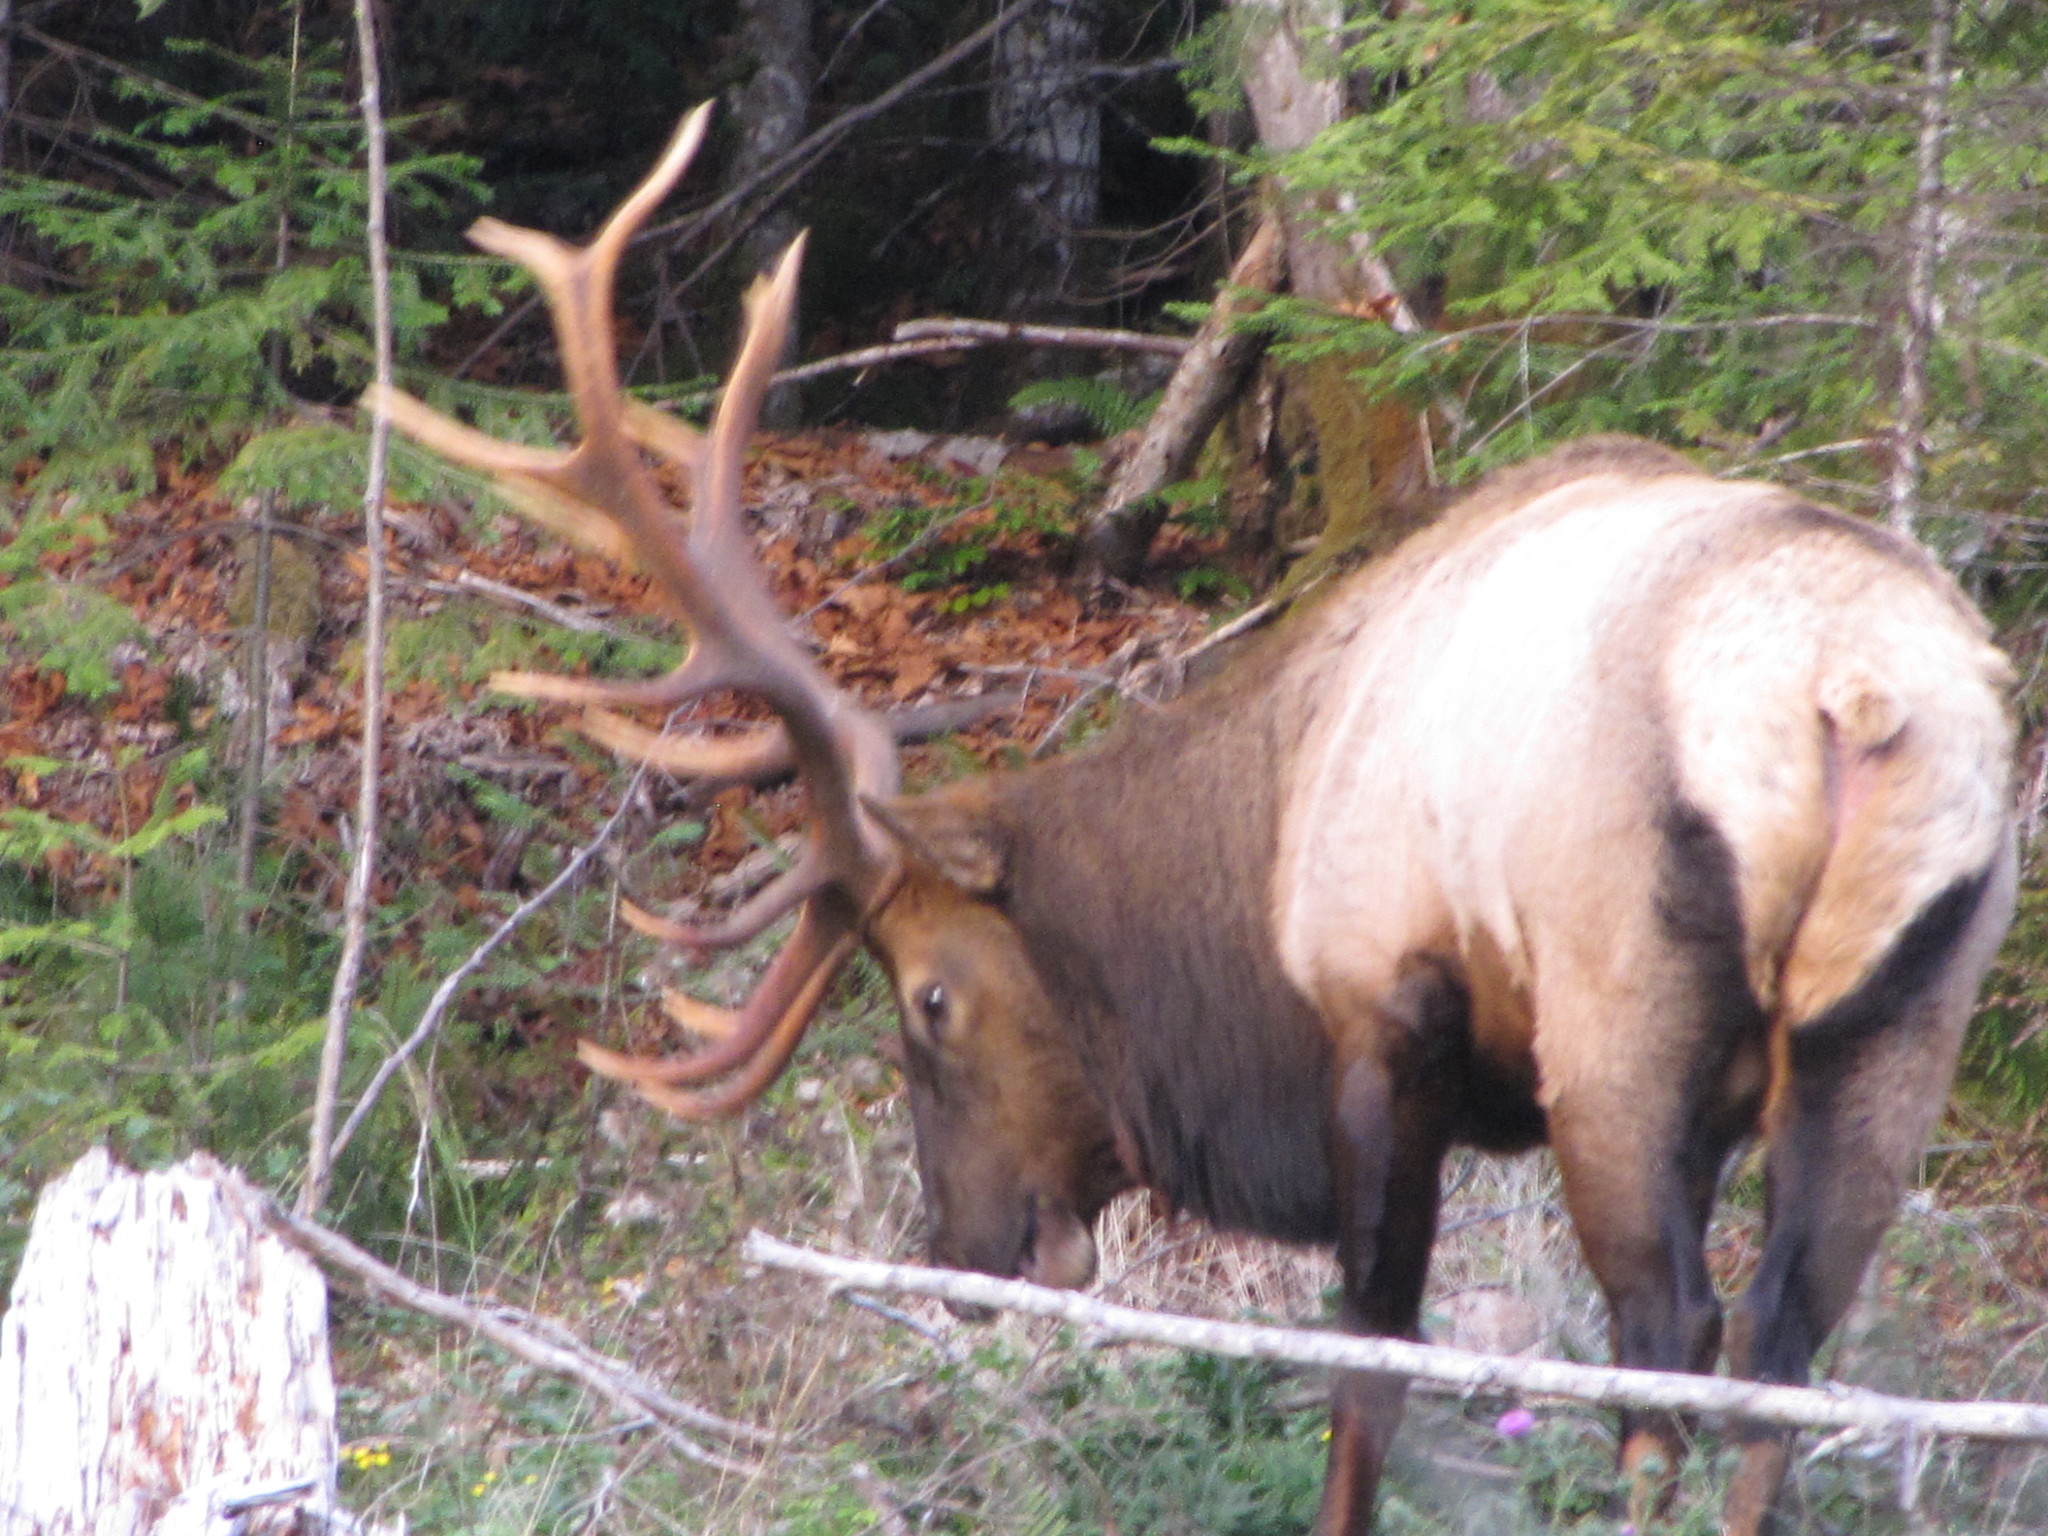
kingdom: Animalia
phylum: Chordata
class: Mammalia
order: Artiodactyla
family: Cervidae
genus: Cervus
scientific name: Cervus elaphus
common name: Red deer
